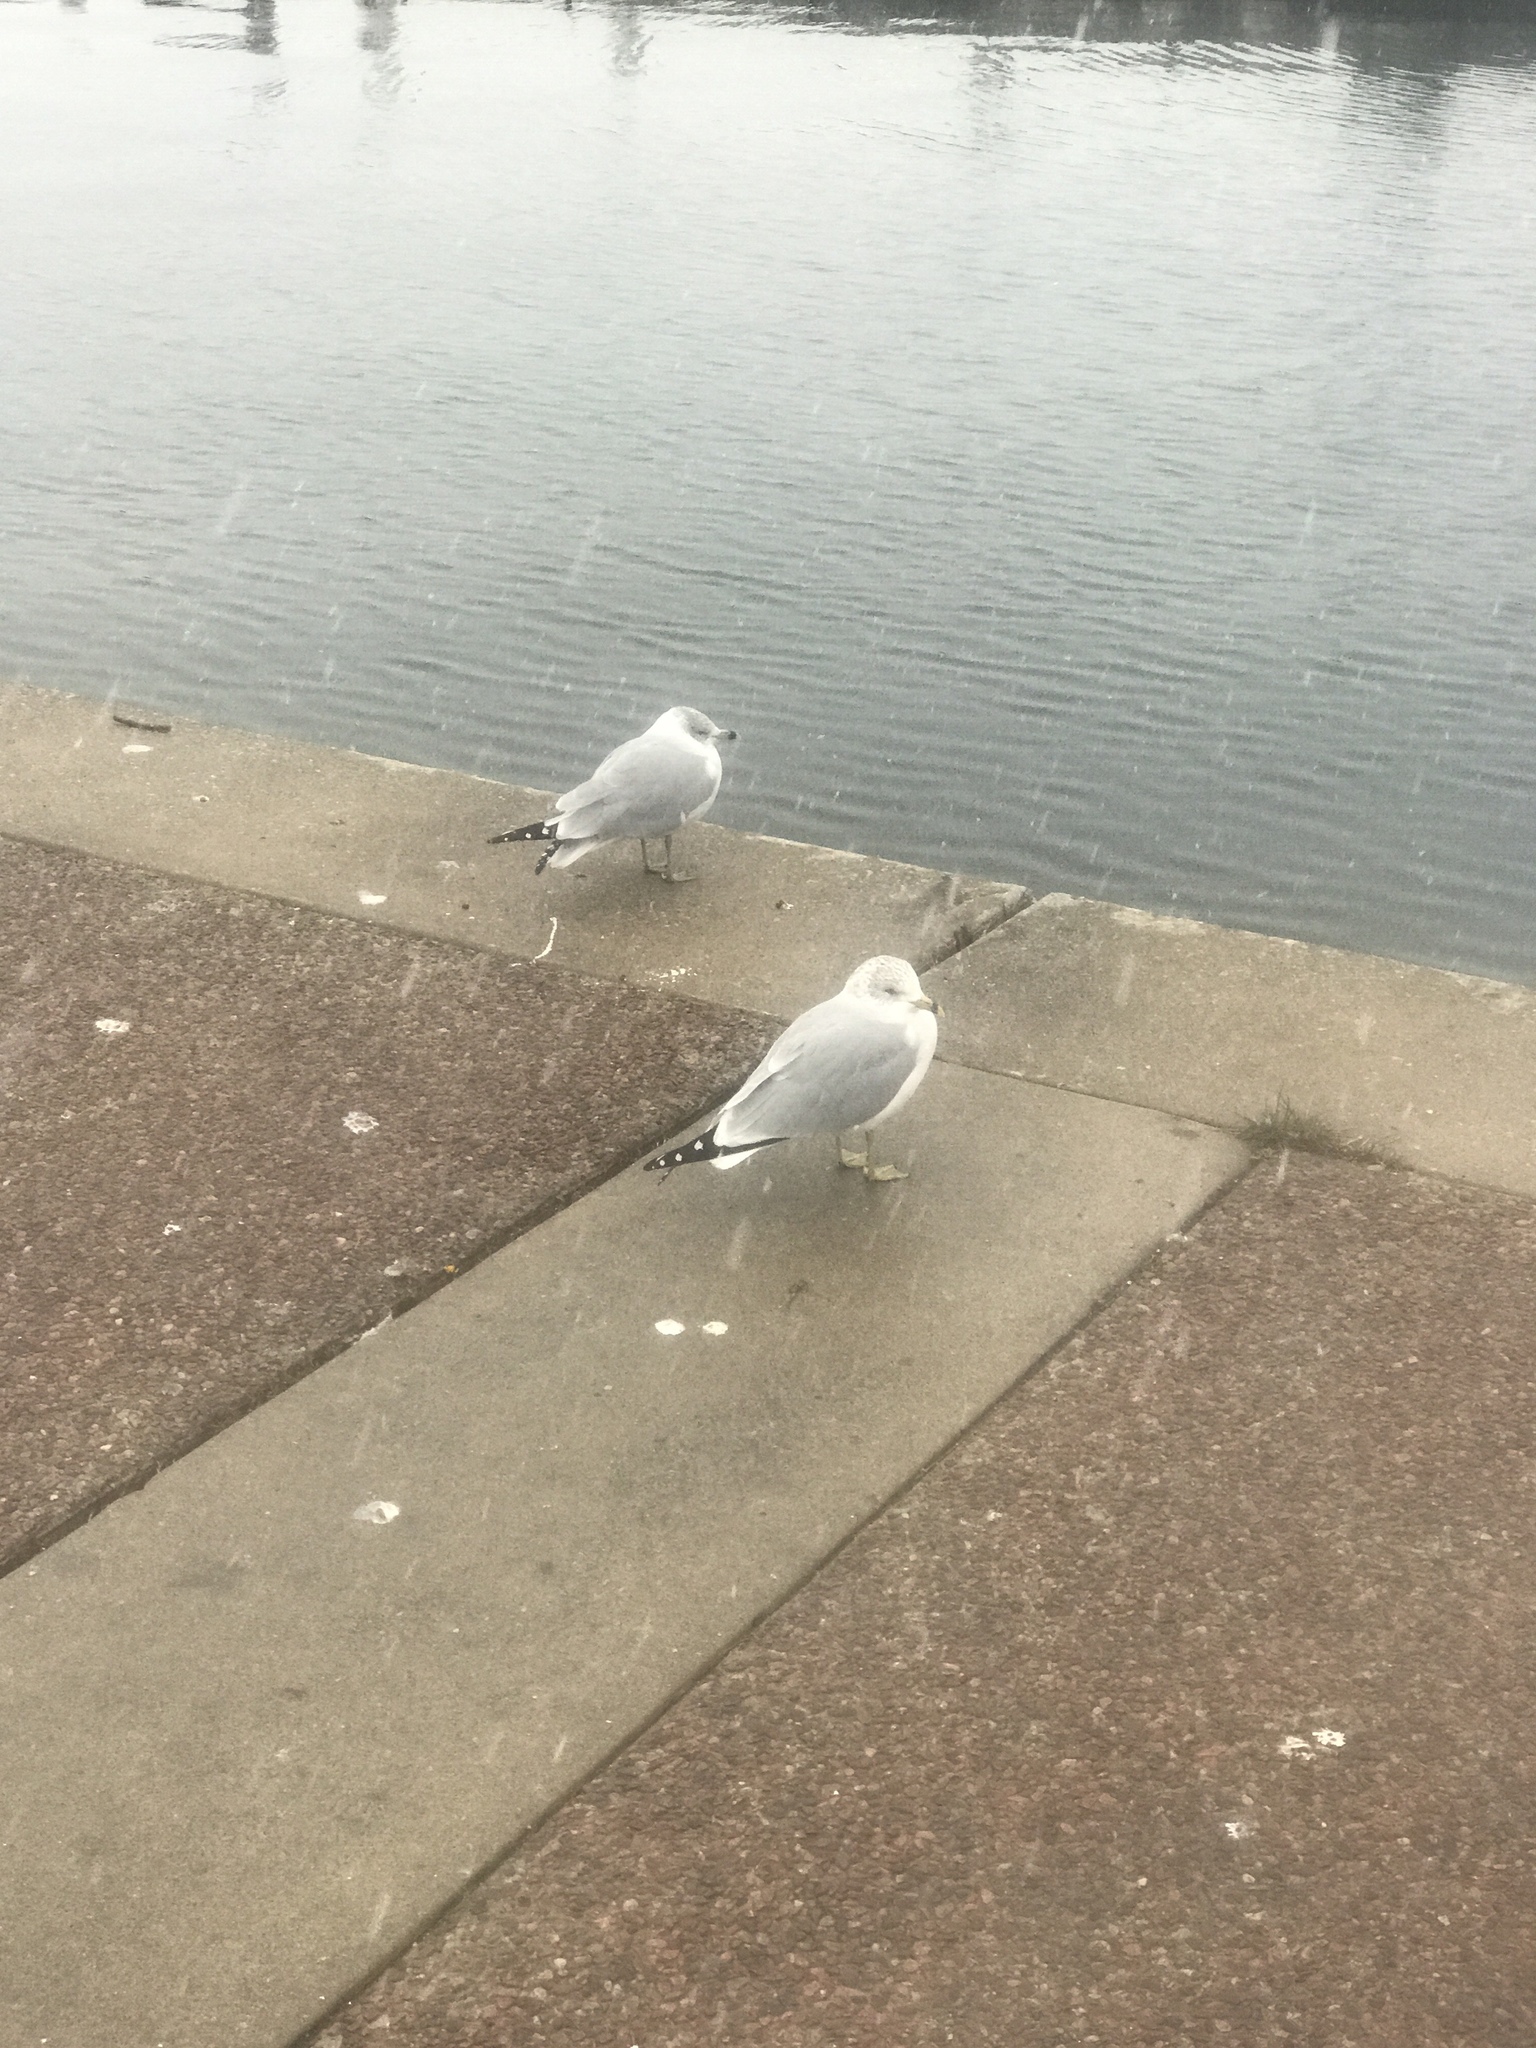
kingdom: Animalia
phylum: Chordata
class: Aves
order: Charadriiformes
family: Laridae
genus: Larus
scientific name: Larus delawarensis
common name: Ring-billed gull
